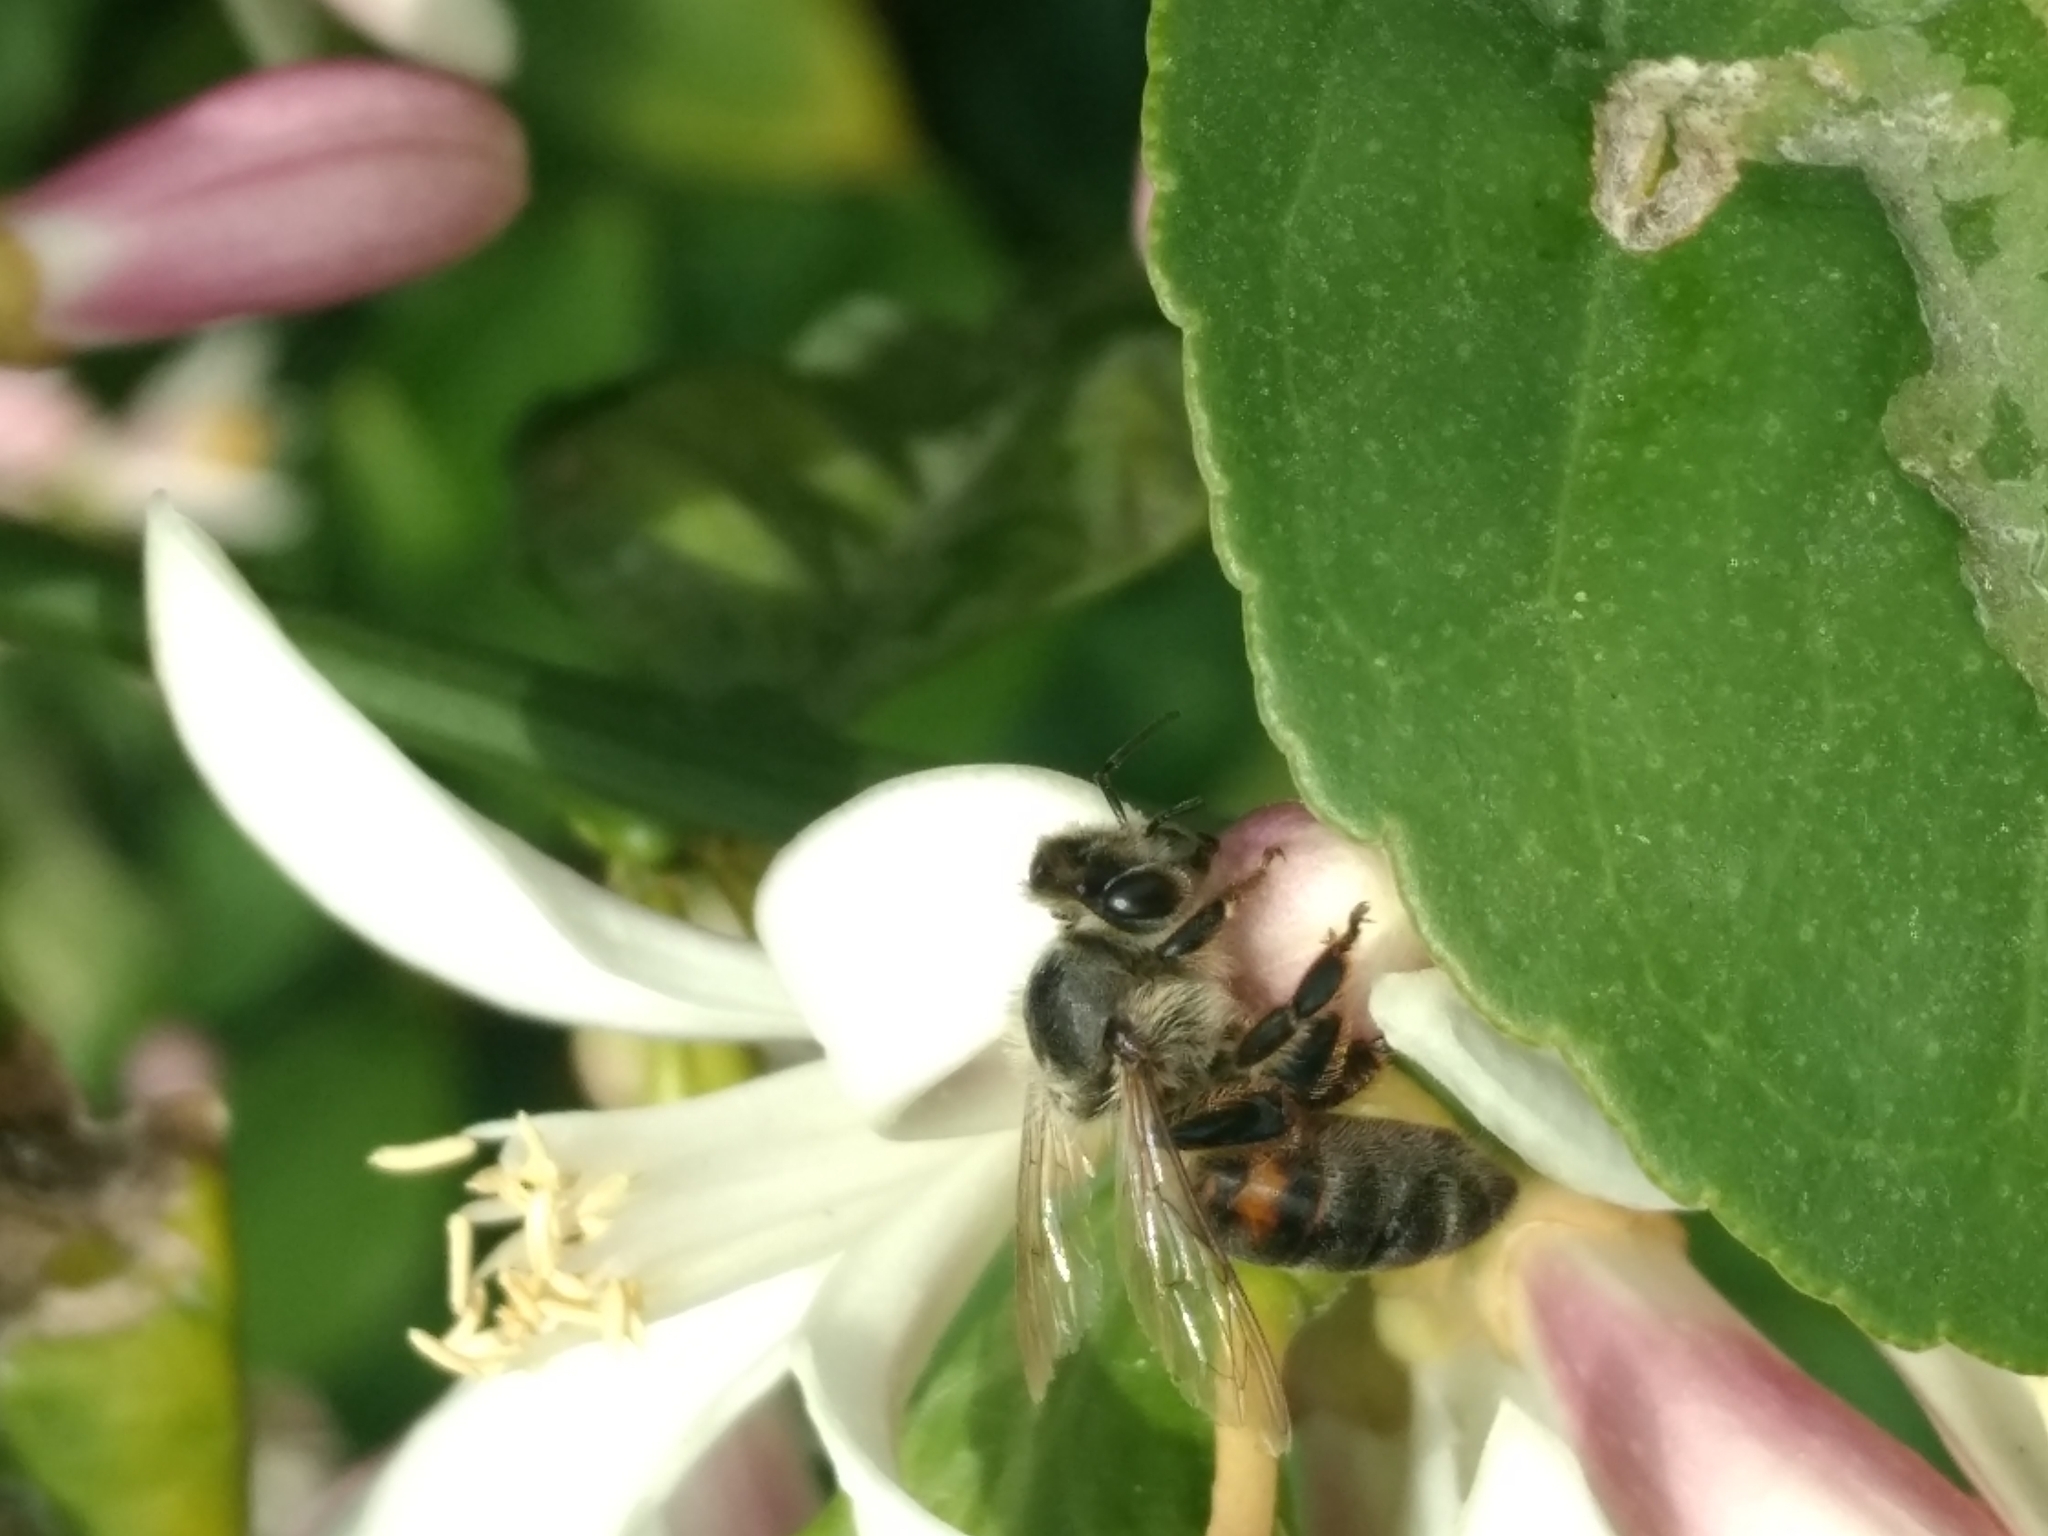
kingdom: Animalia
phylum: Arthropoda
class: Insecta
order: Hymenoptera
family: Apidae
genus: Apis
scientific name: Apis mellifera
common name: Honey bee
